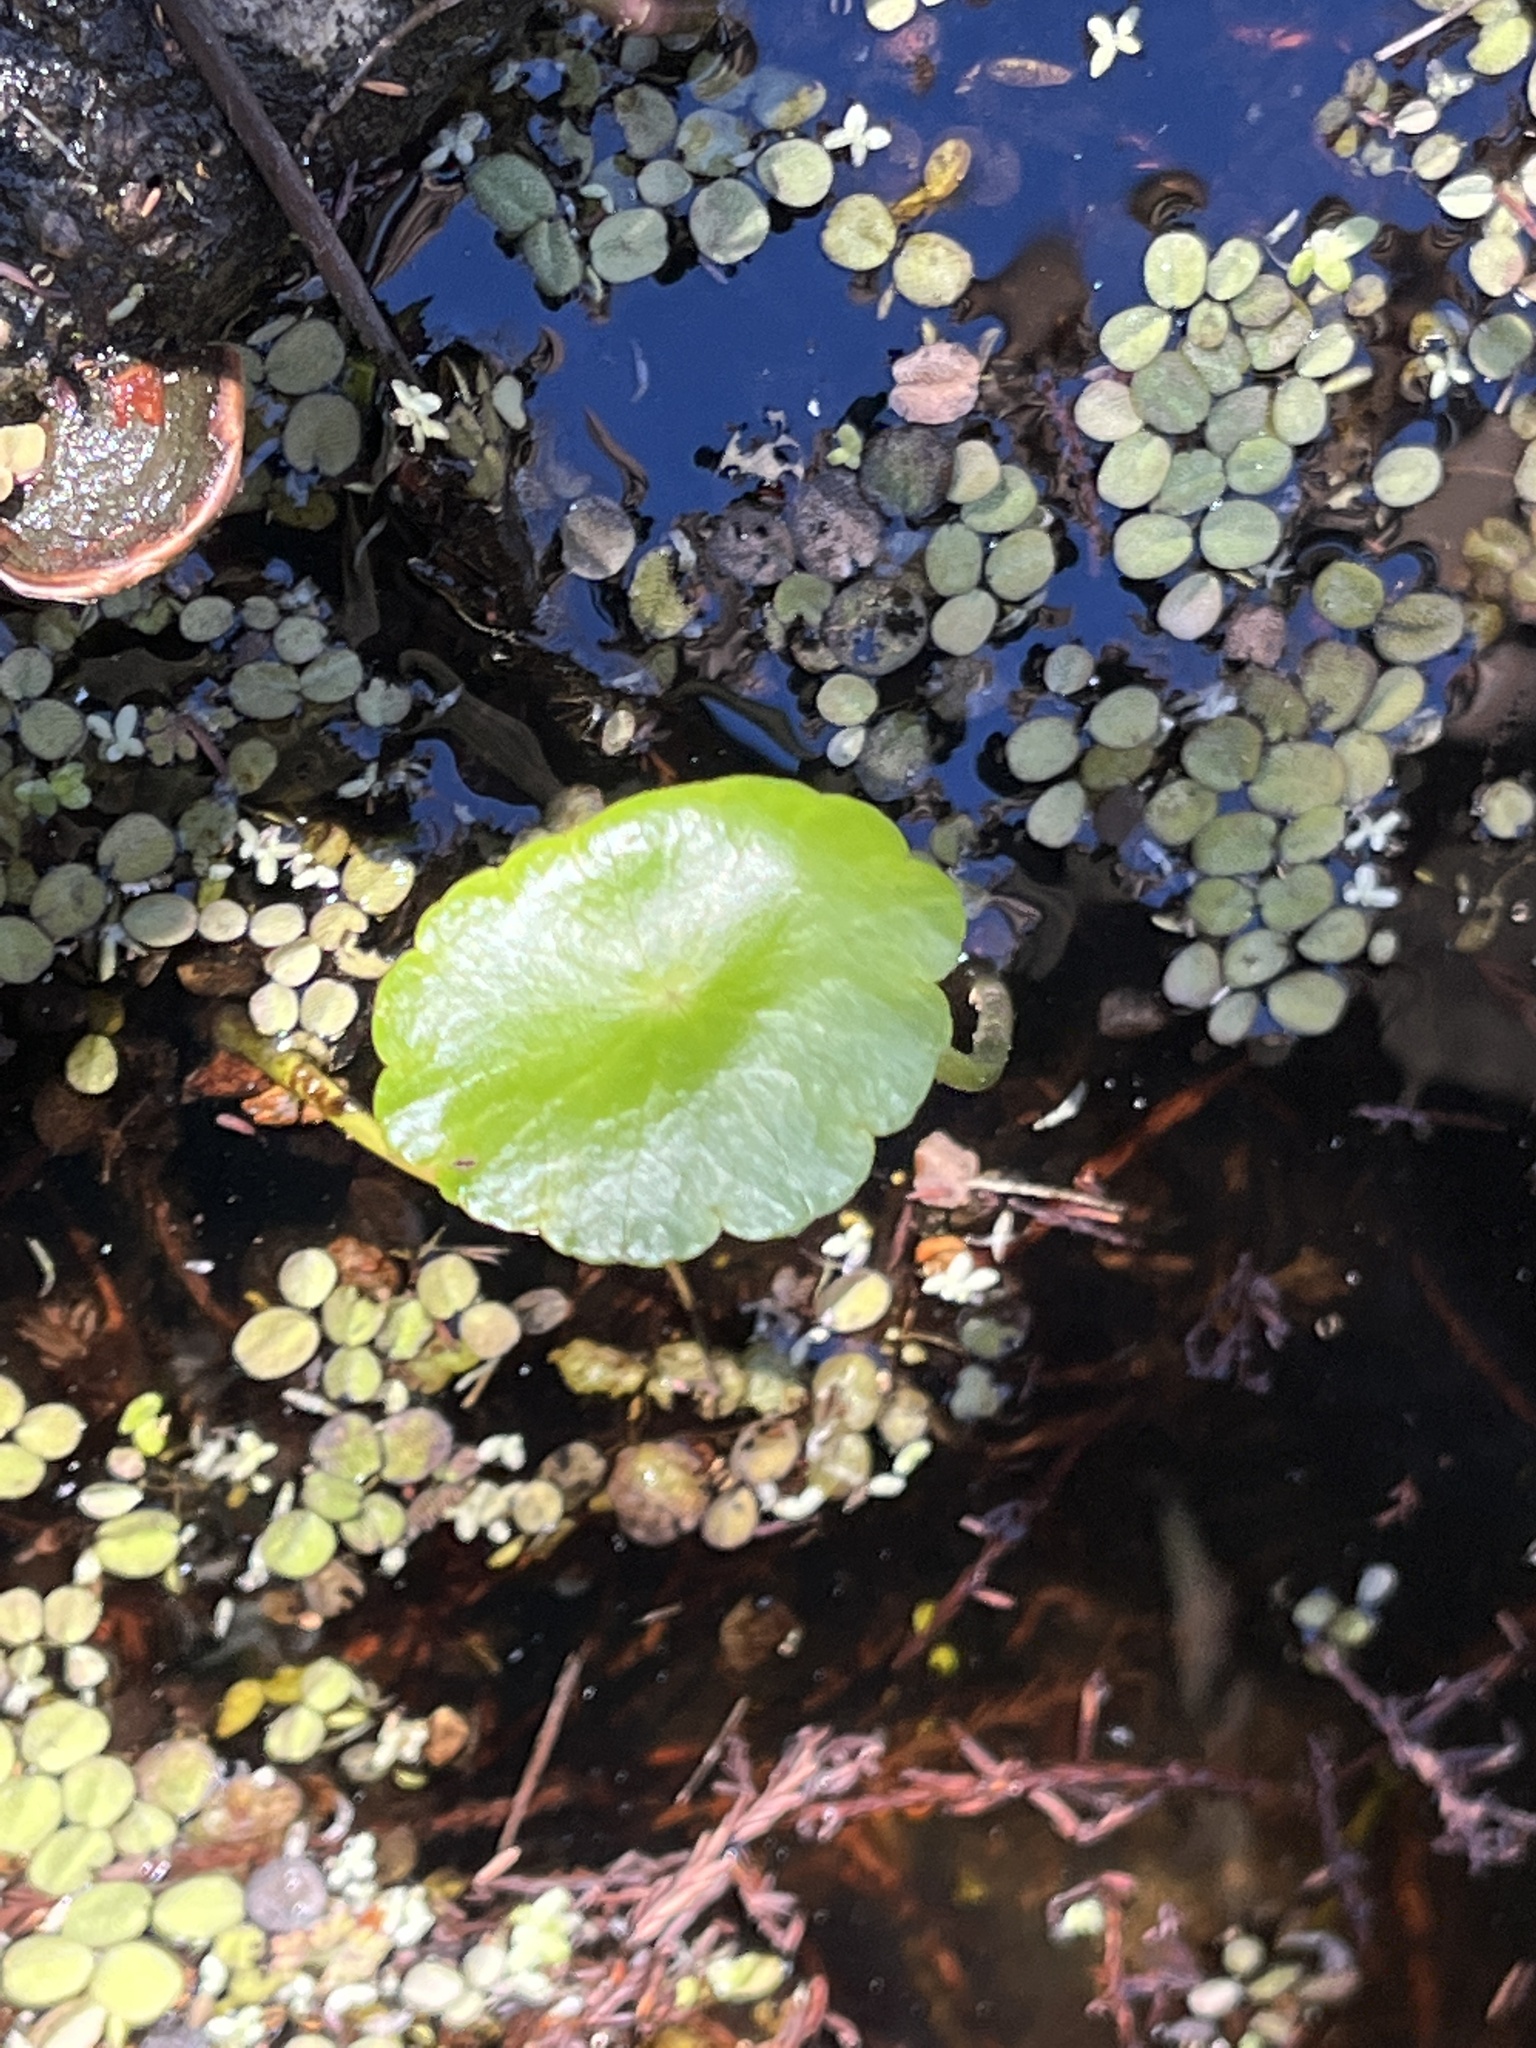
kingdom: Plantae
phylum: Tracheophyta
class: Magnoliopsida
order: Apiales
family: Araliaceae
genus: Hydrocotyle
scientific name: Hydrocotyle
